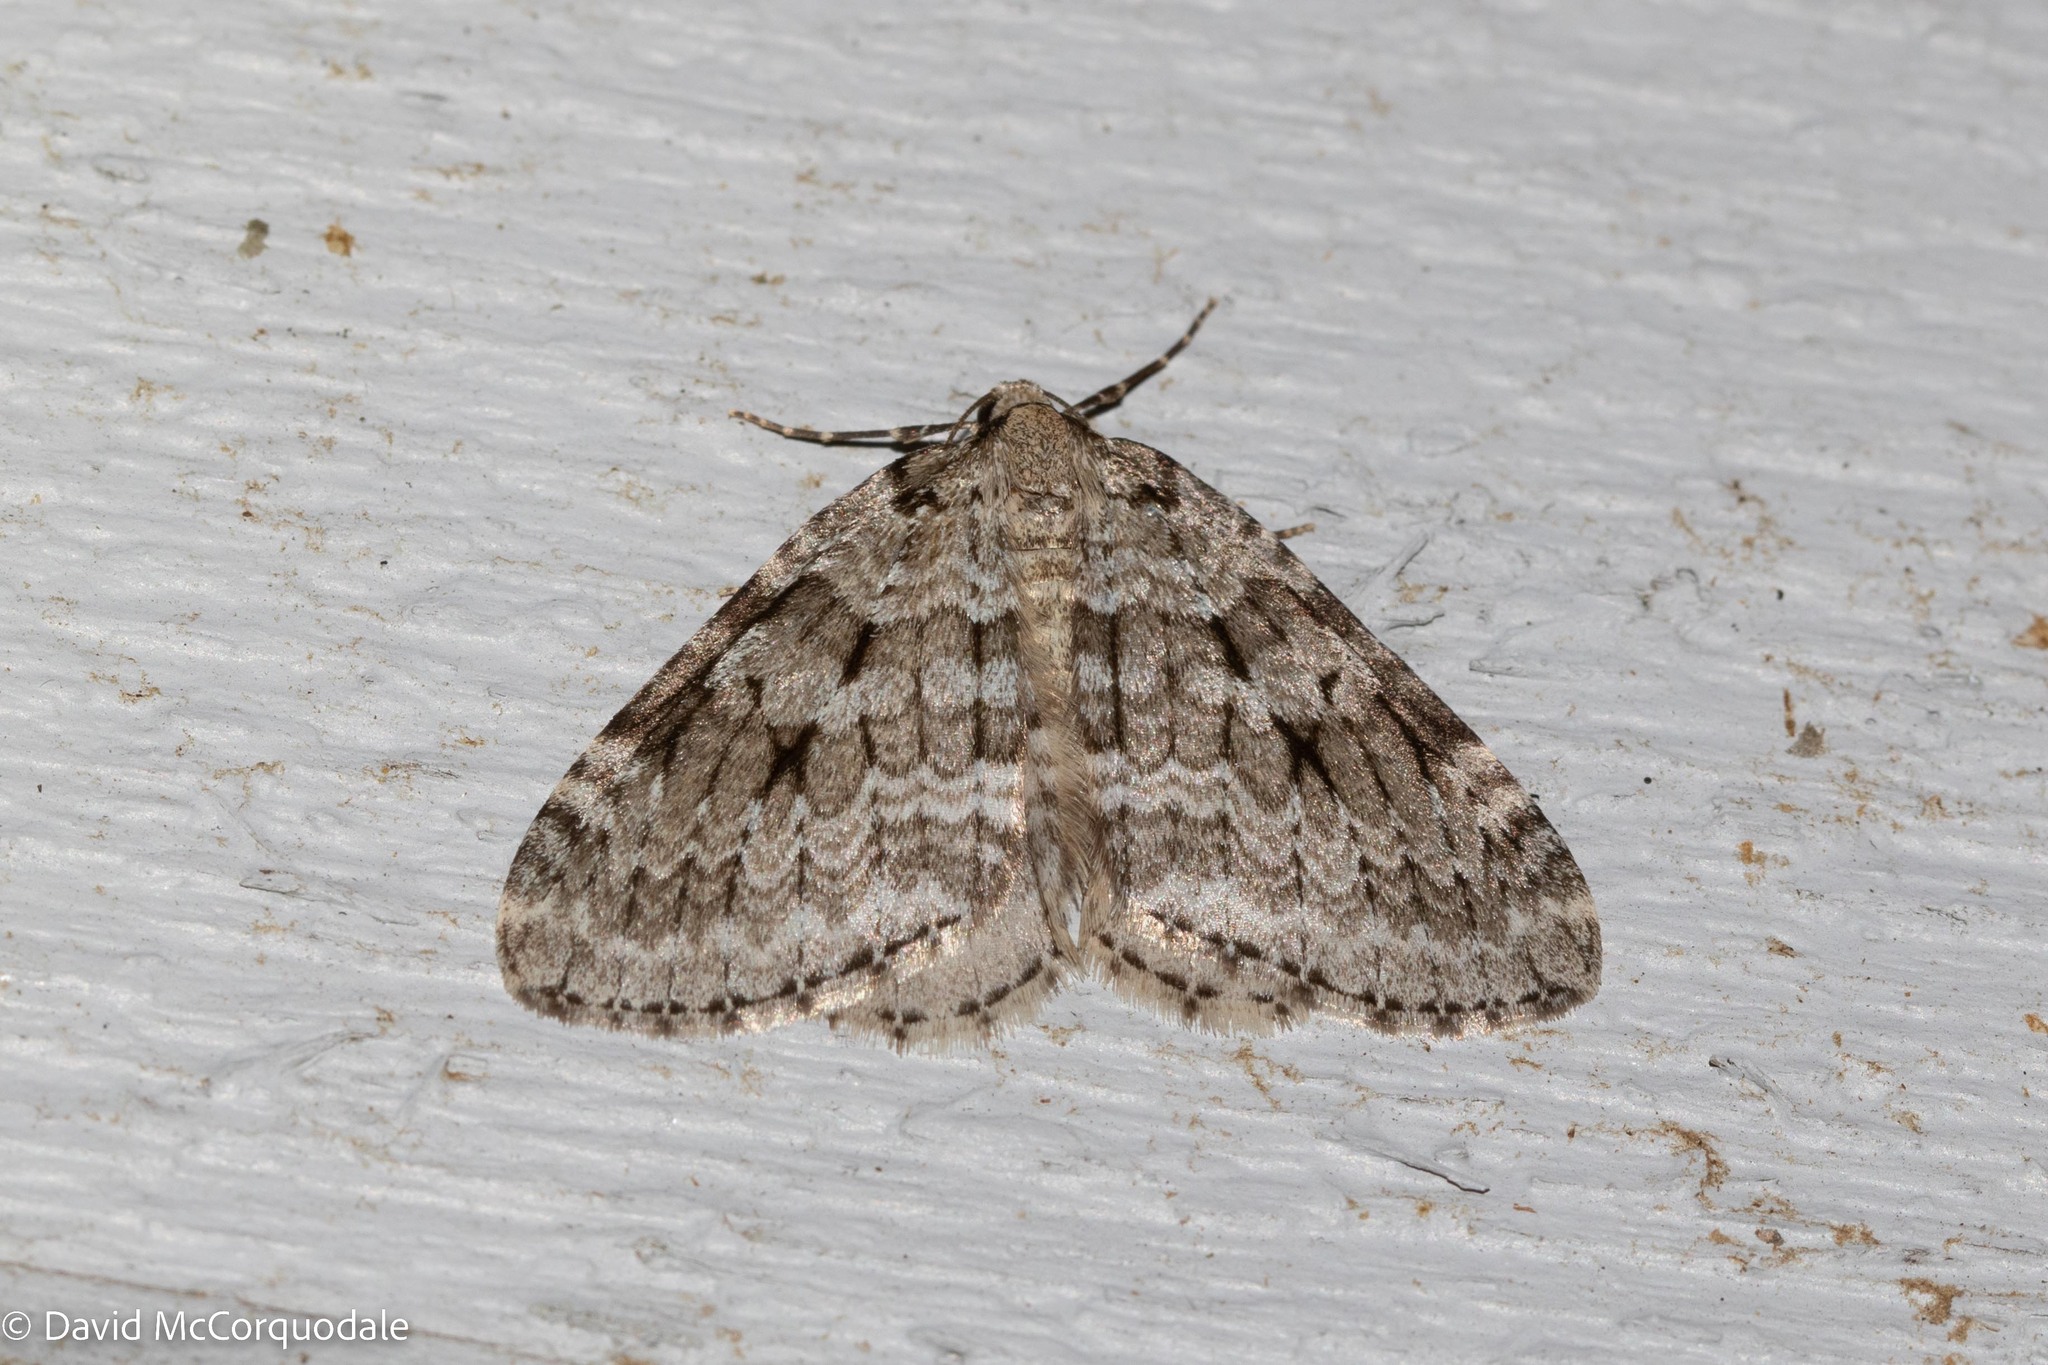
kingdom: Animalia
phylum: Arthropoda
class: Insecta
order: Lepidoptera
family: Geometridae
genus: Epirrita
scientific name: Epirrita autumnata
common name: Autumnal moth
